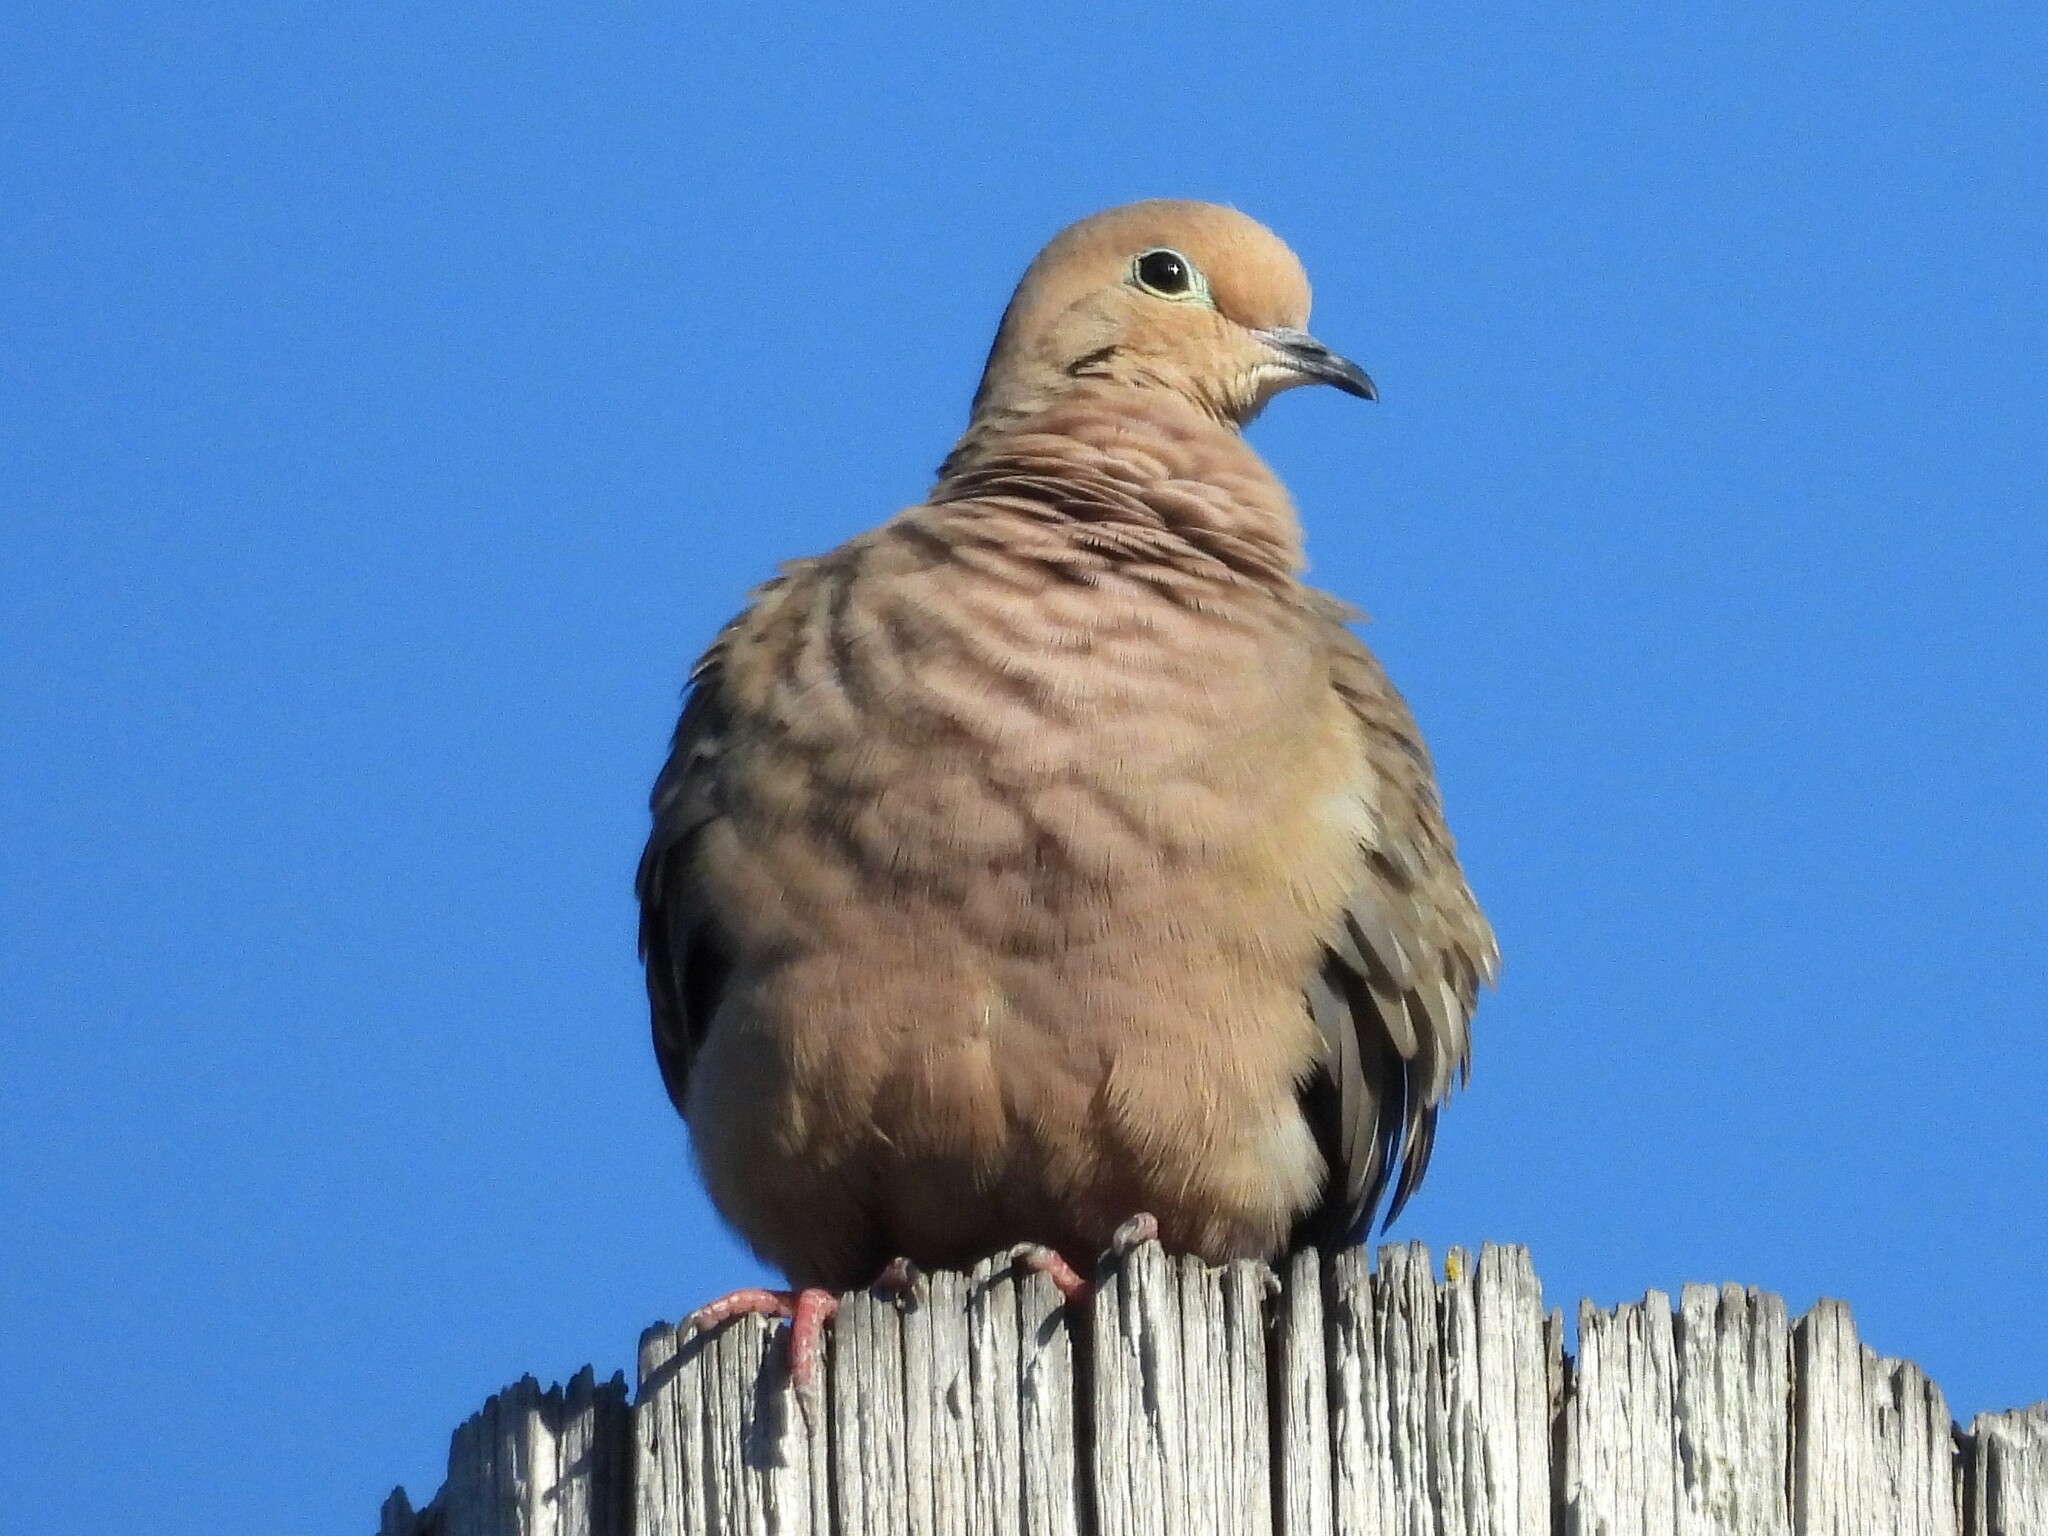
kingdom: Animalia
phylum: Chordata
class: Aves
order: Columbiformes
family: Columbidae
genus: Zenaida
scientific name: Zenaida macroura
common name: Mourning dove
